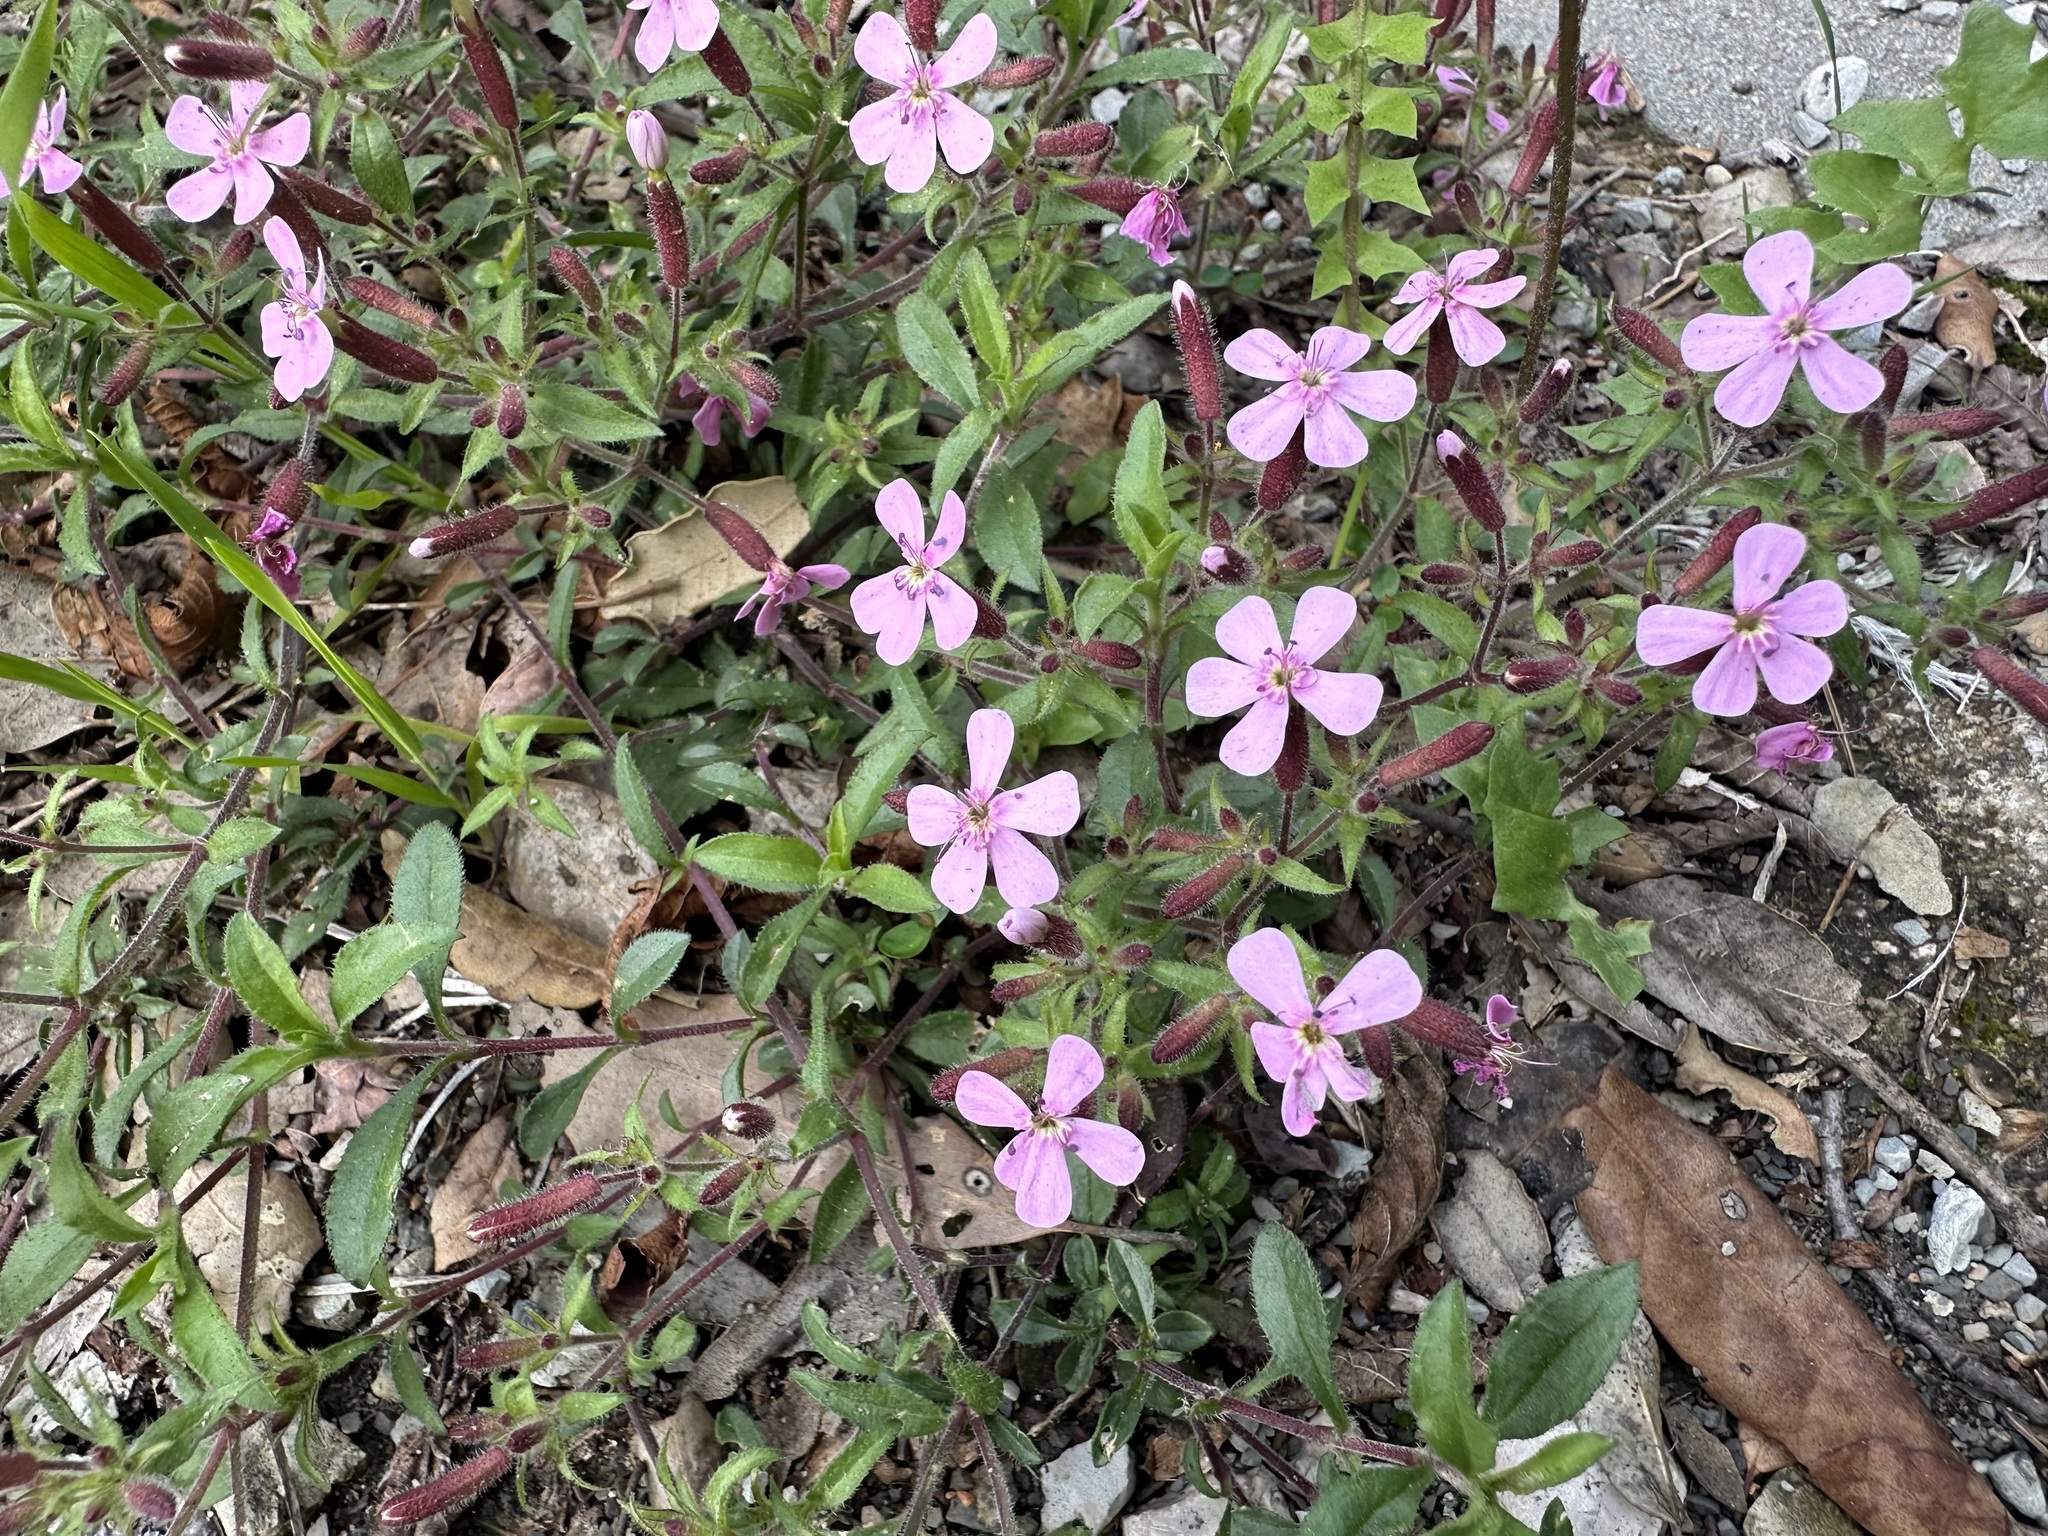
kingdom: Plantae
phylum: Tracheophyta
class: Magnoliopsida
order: Caryophyllales
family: Caryophyllaceae
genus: Saponaria
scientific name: Saponaria ocymoides
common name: Rock soapwort
